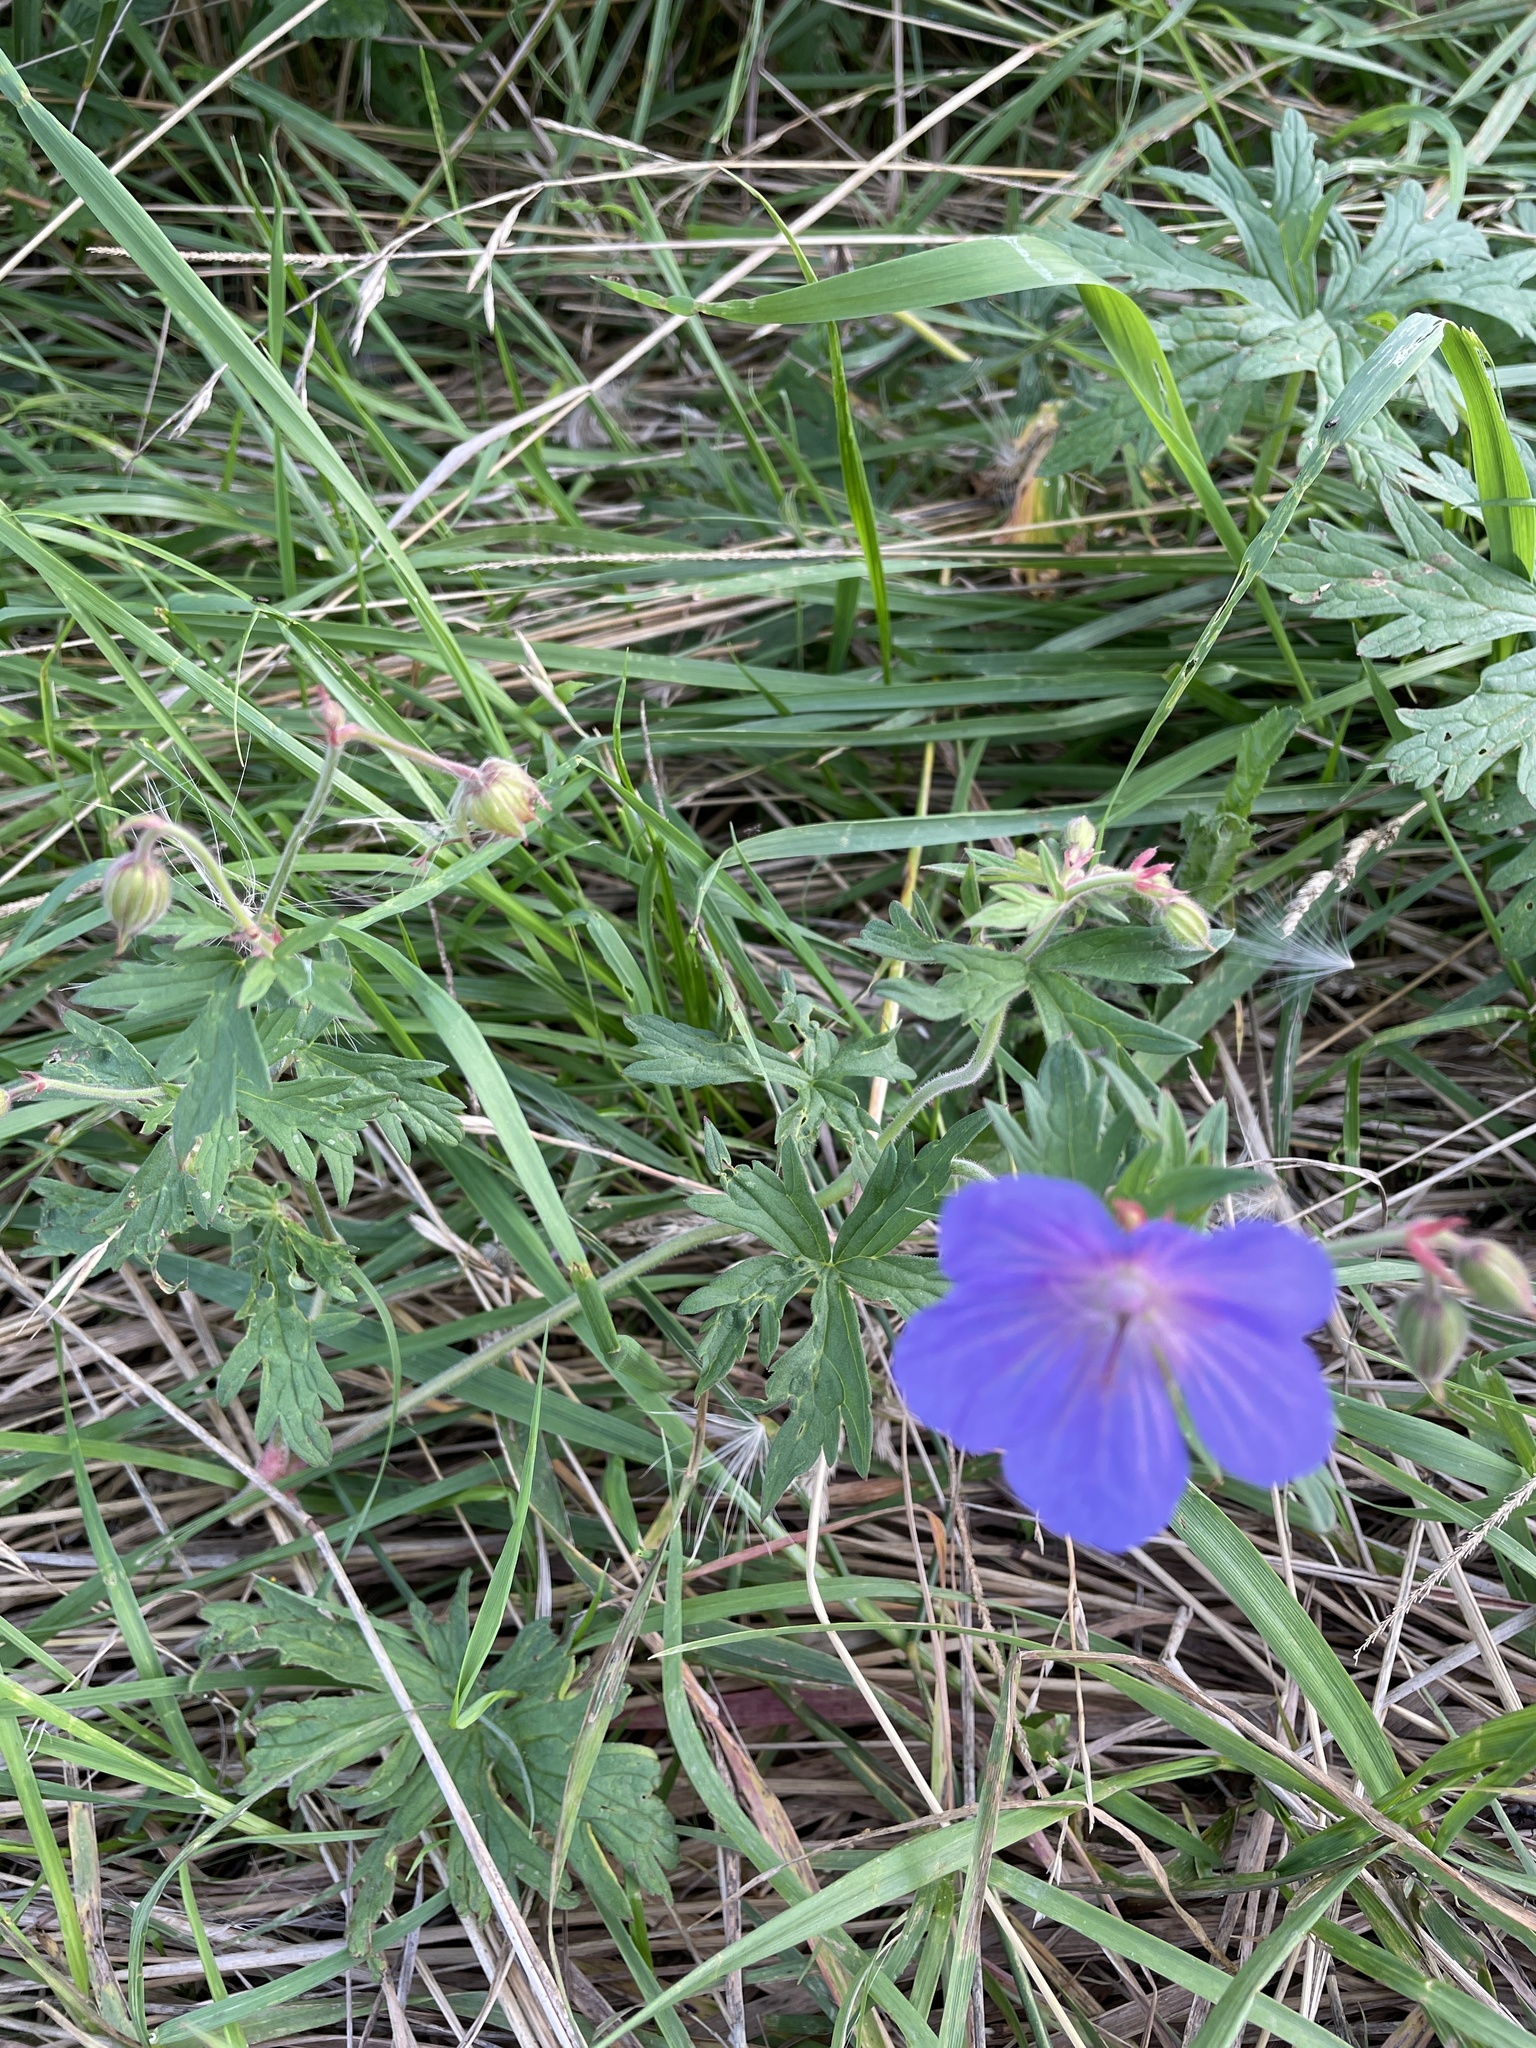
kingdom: Plantae
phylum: Tracheophyta
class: Magnoliopsida
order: Geraniales
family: Geraniaceae
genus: Geranium
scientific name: Geranium pratense
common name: Meadow crane's-bill
